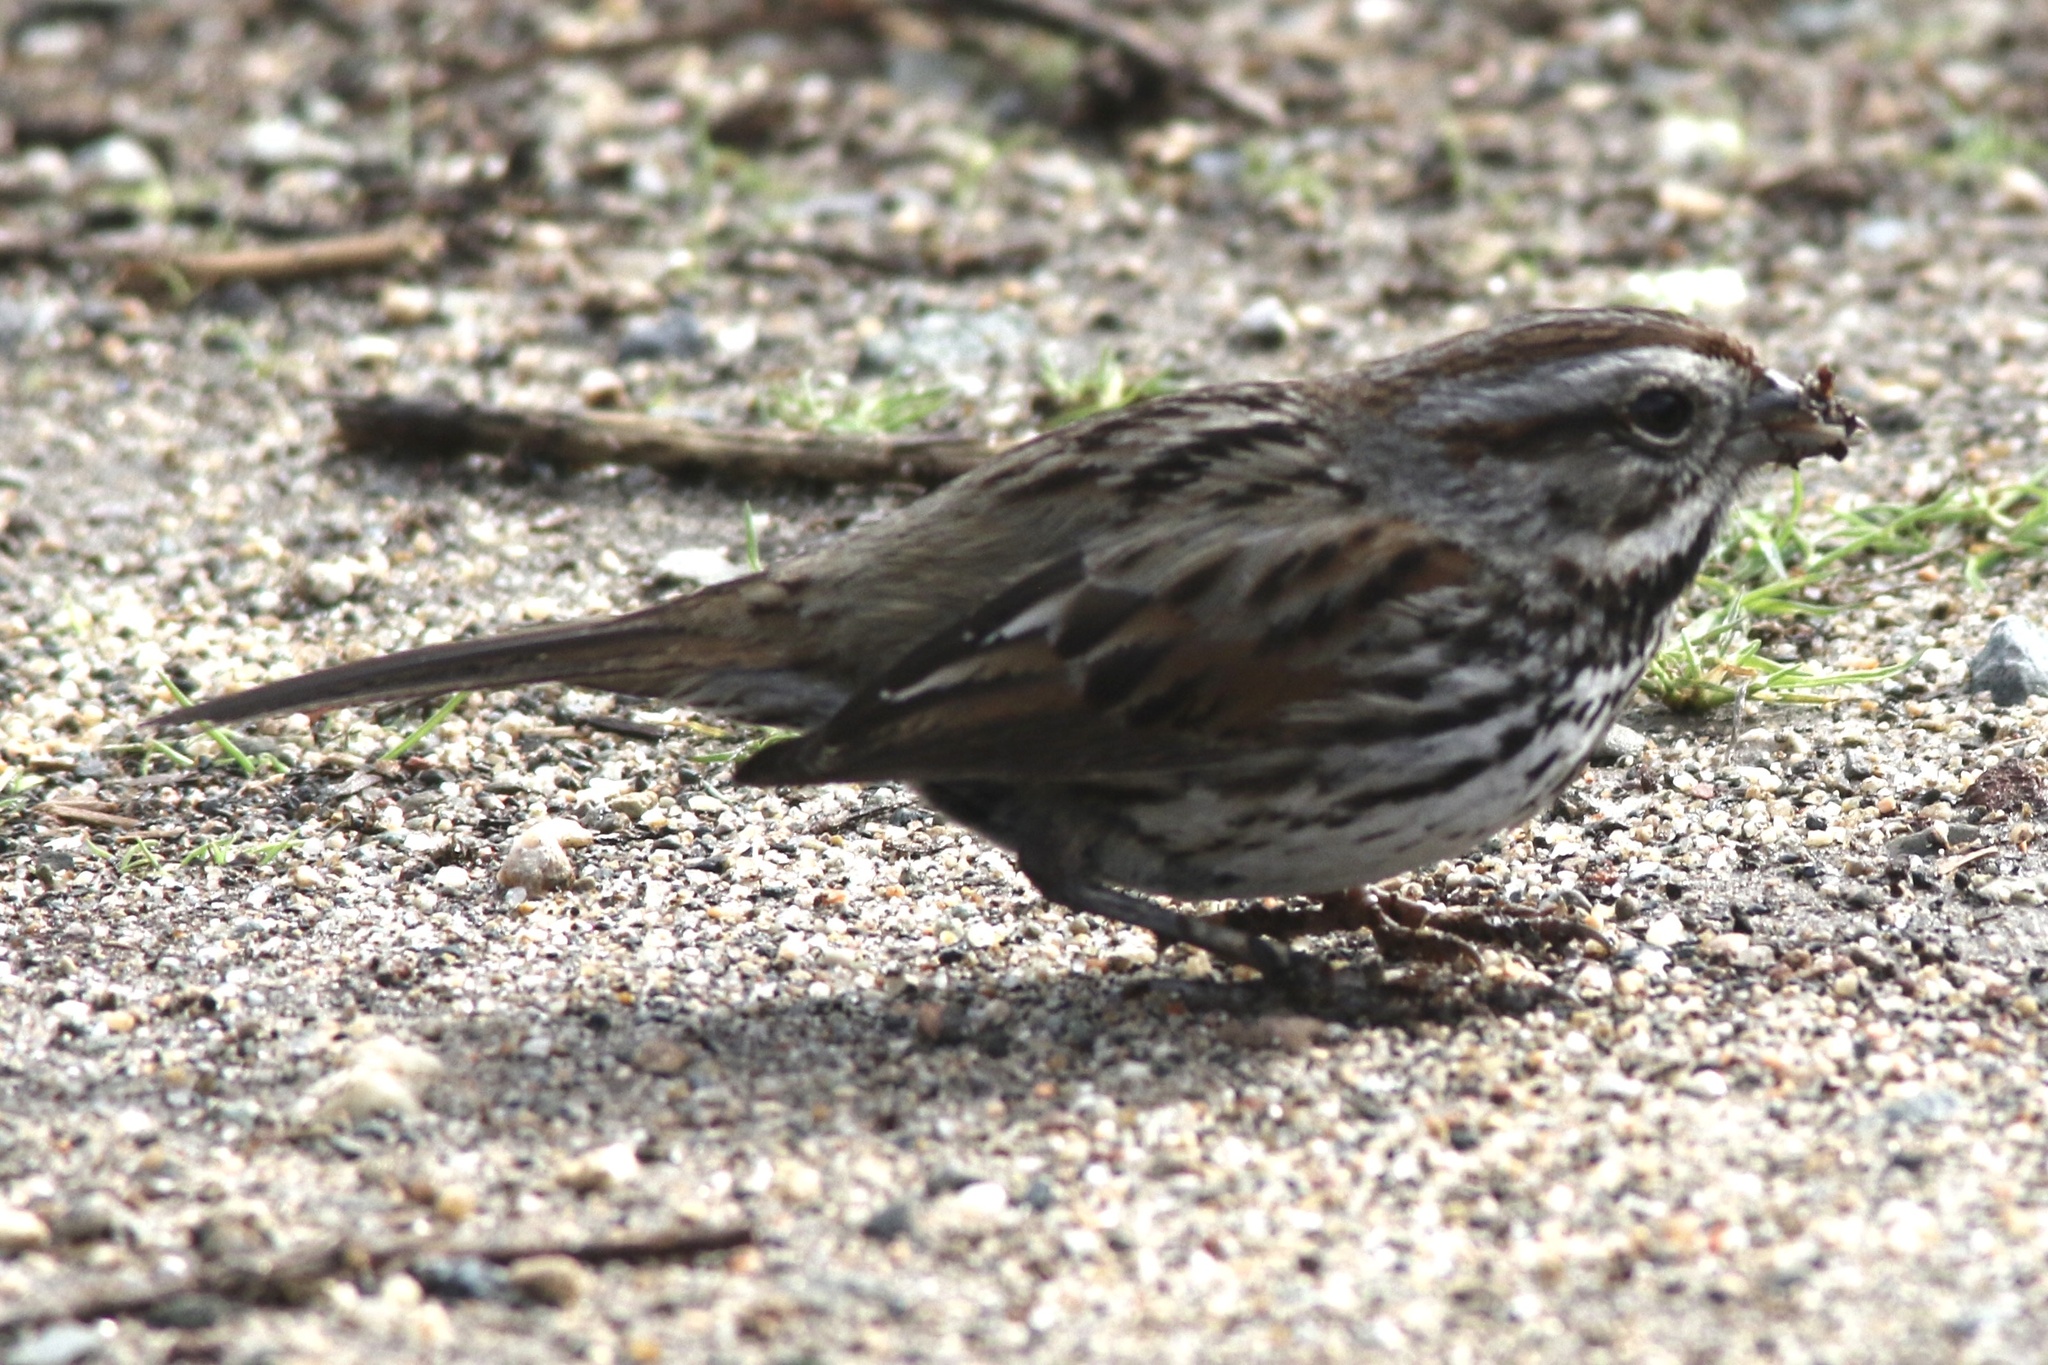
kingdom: Animalia
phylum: Chordata
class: Aves
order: Passeriformes
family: Passerellidae
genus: Melospiza
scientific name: Melospiza melodia
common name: Song sparrow
